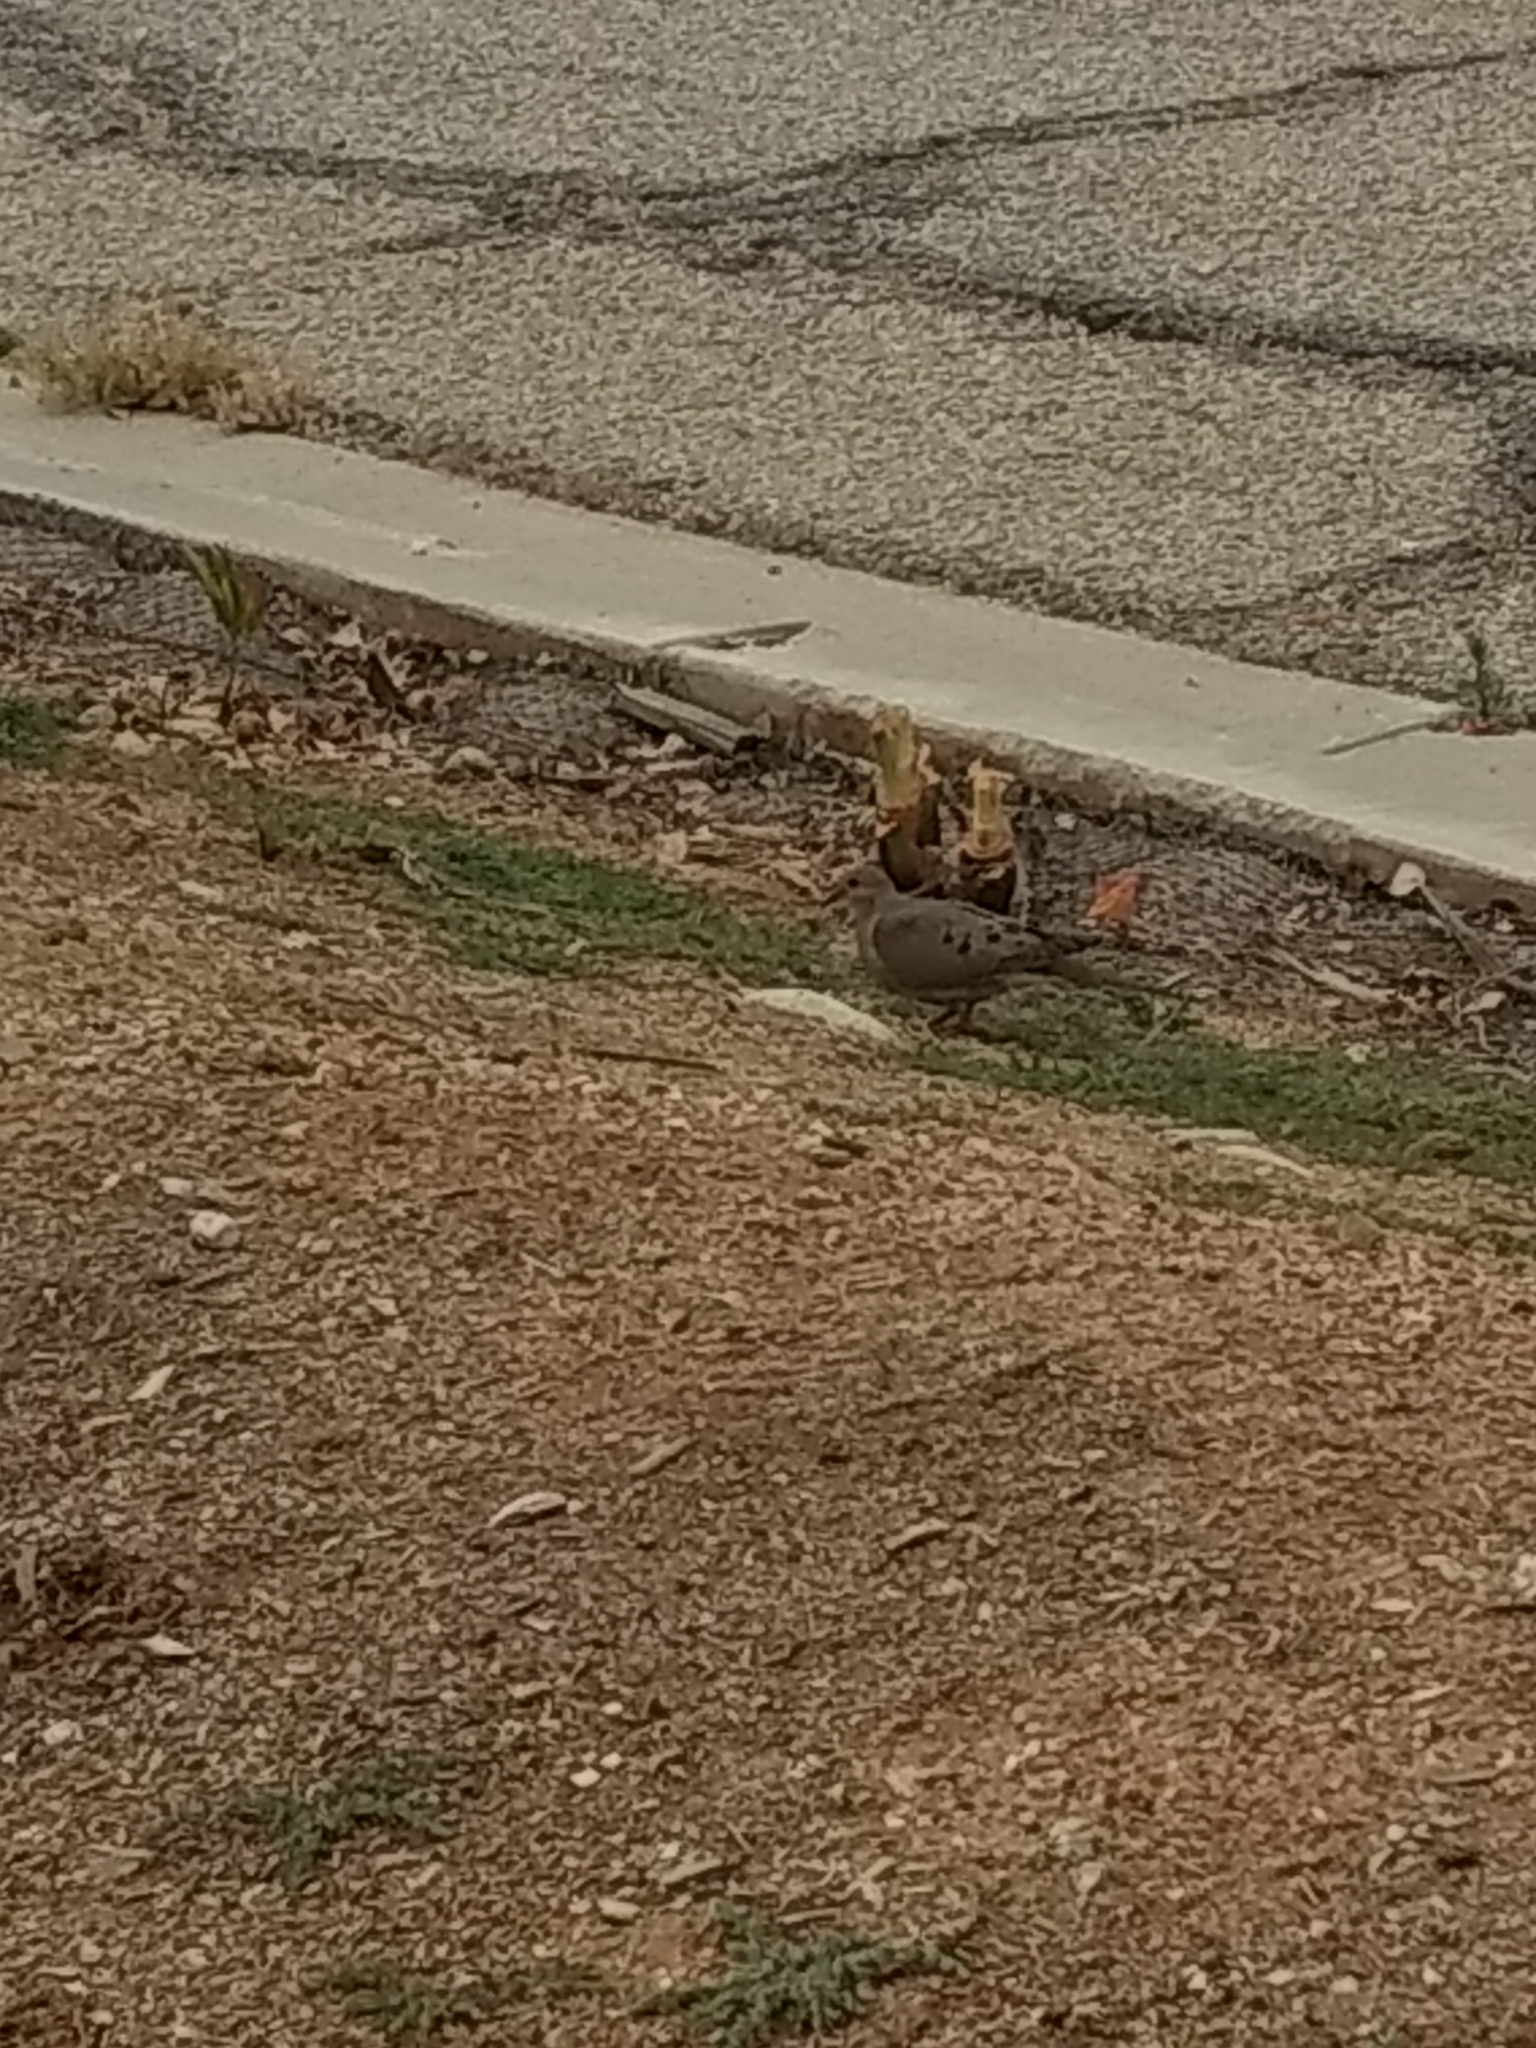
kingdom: Animalia
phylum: Chordata
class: Aves
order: Columbiformes
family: Columbidae
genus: Zenaida
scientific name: Zenaida macroura
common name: Mourning dove
